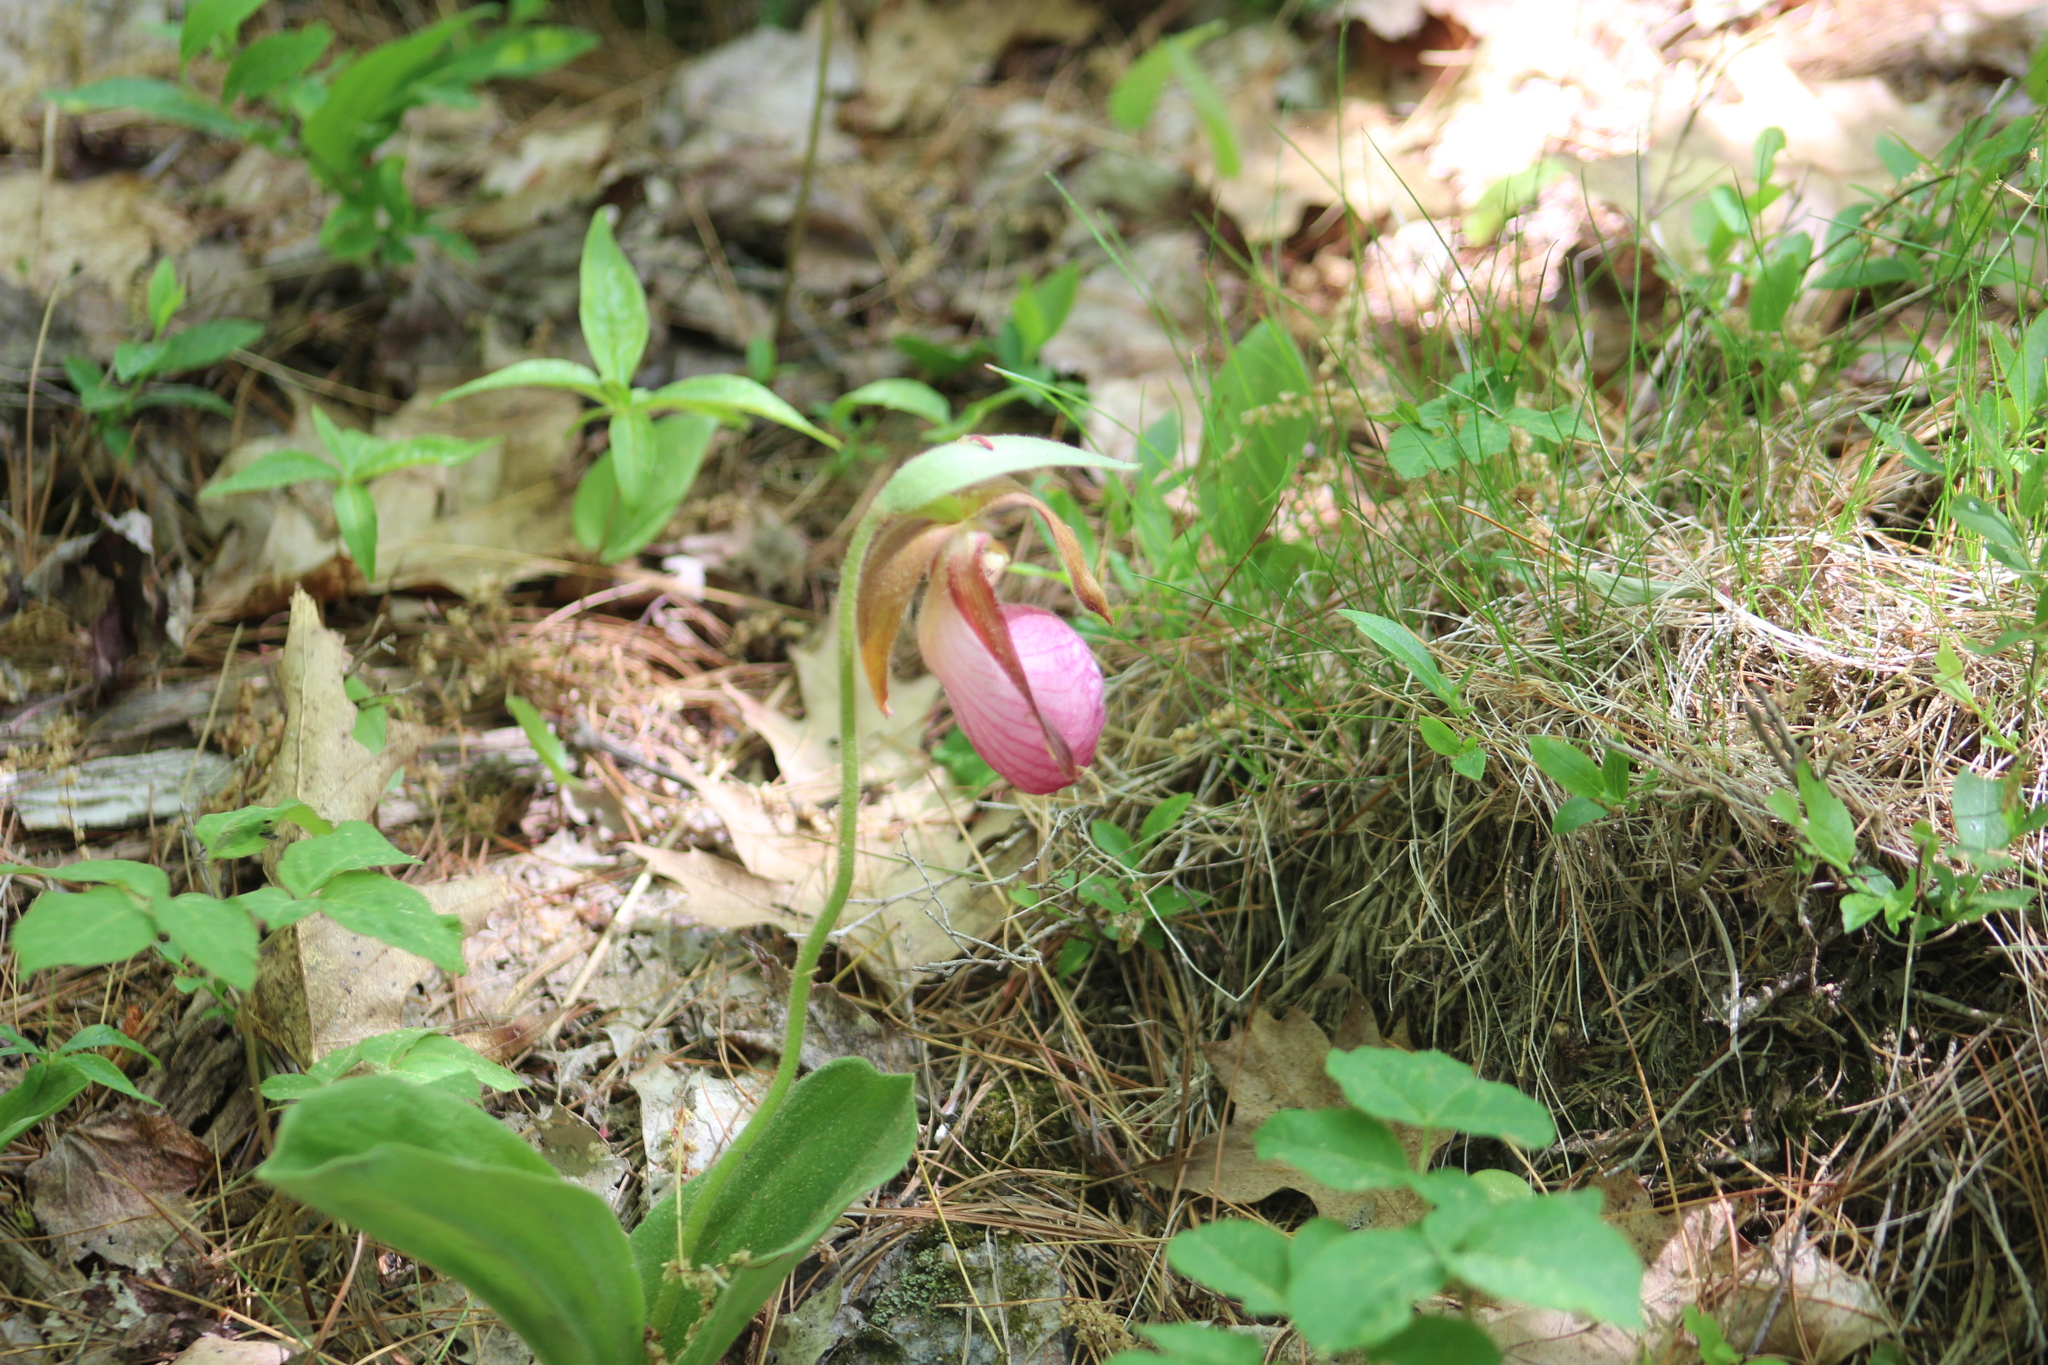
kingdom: Plantae
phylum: Tracheophyta
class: Liliopsida
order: Asparagales
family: Orchidaceae
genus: Cypripedium
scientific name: Cypripedium acaule
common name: Pink lady's-slipper
